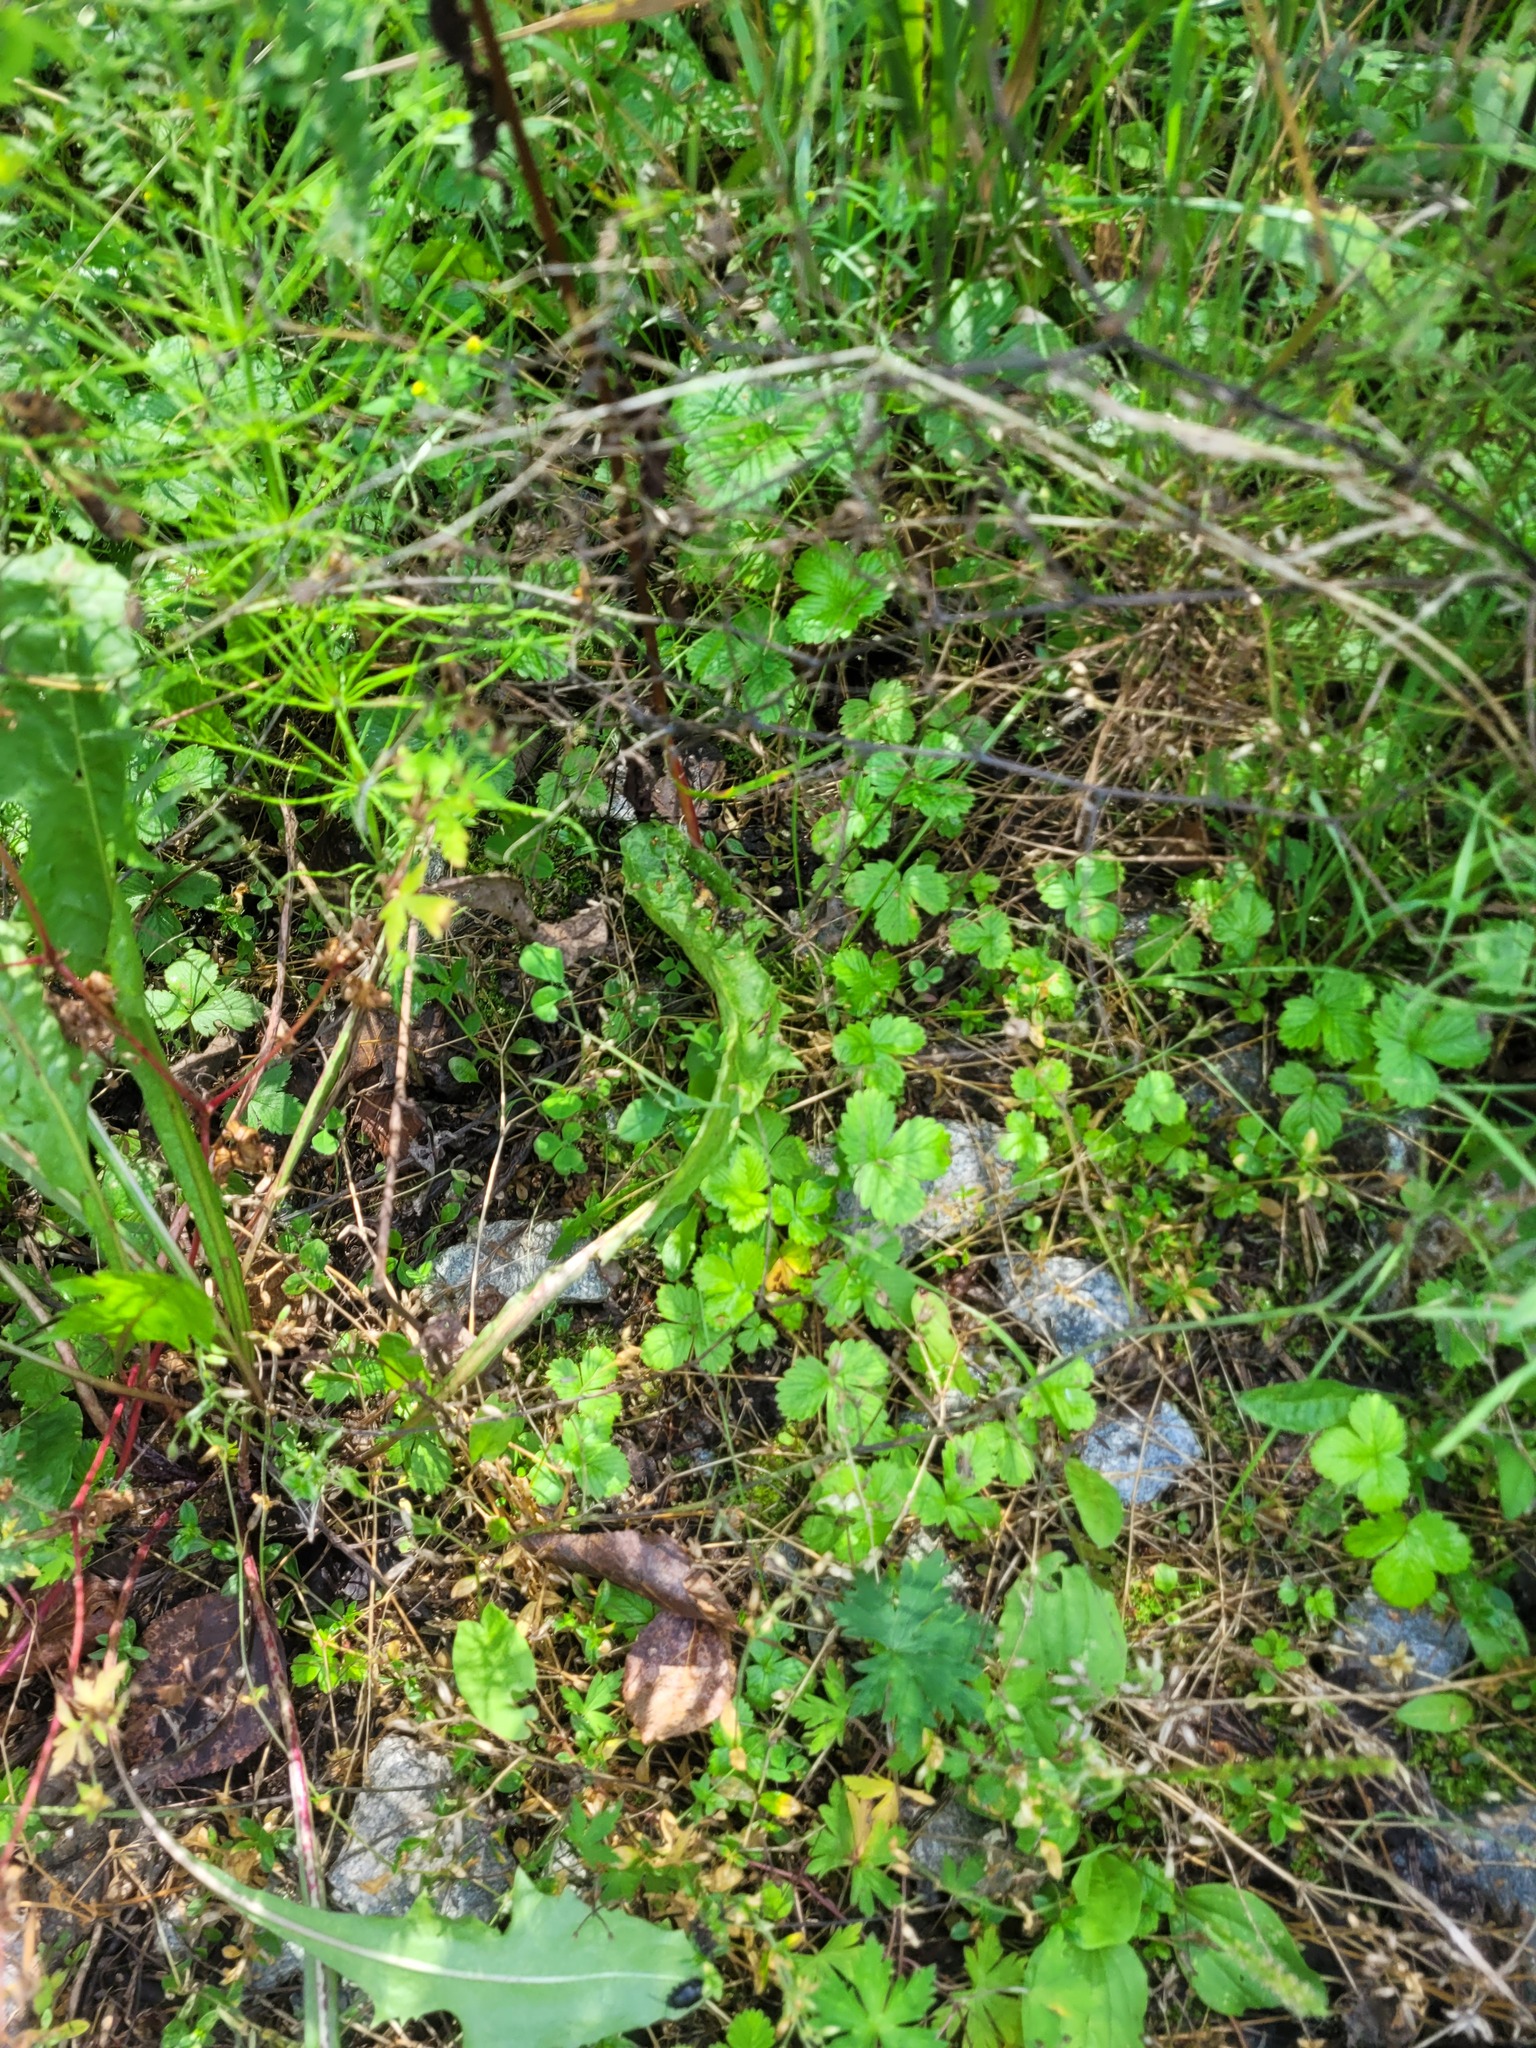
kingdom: Plantae
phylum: Tracheophyta
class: Magnoliopsida
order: Rosales
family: Rosaceae
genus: Fragaria
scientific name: Fragaria vesca
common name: Wild strawberry
